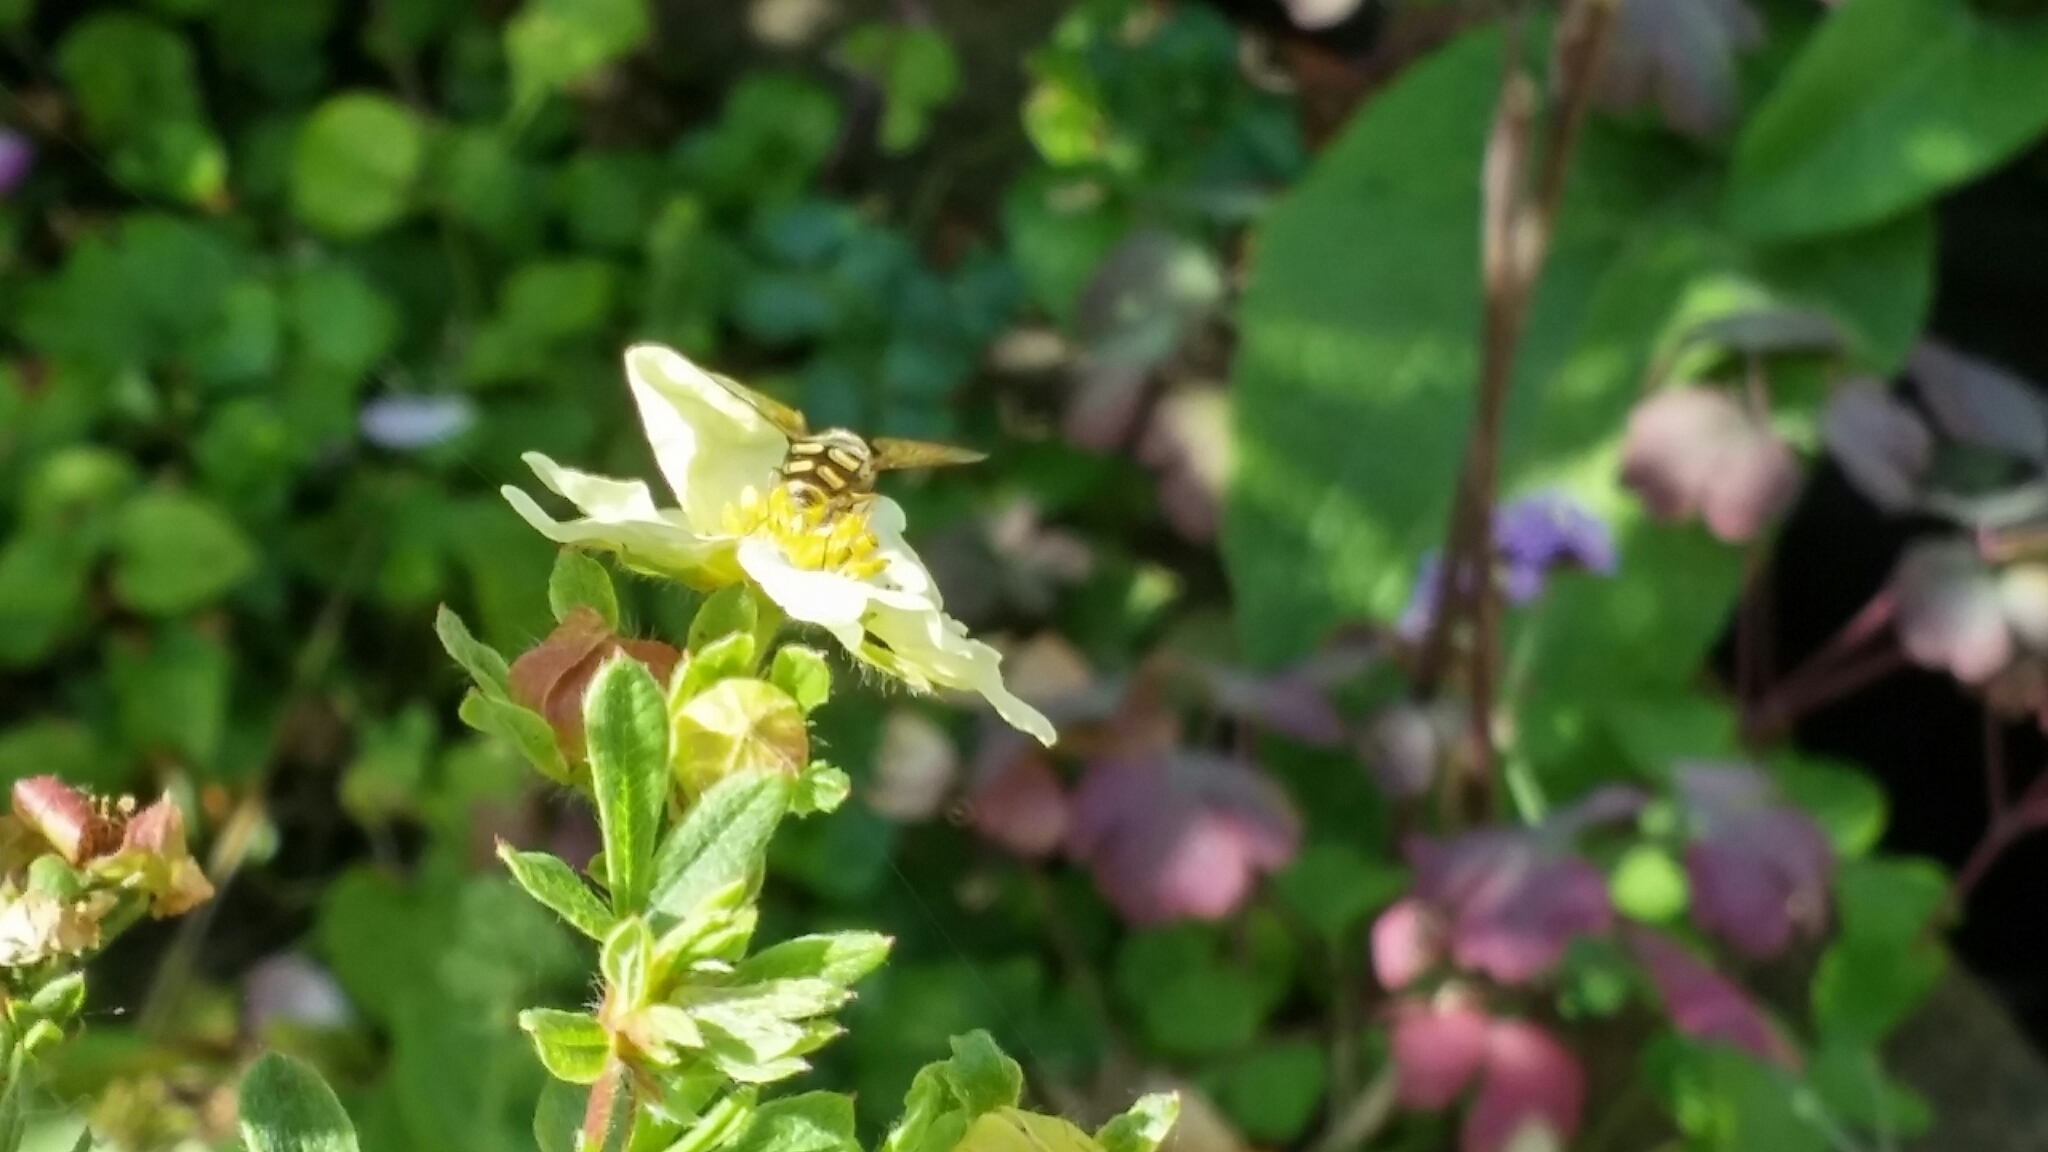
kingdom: Animalia
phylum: Arthropoda
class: Insecta
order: Diptera
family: Syrphidae
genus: Eupeodes
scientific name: Eupeodes
